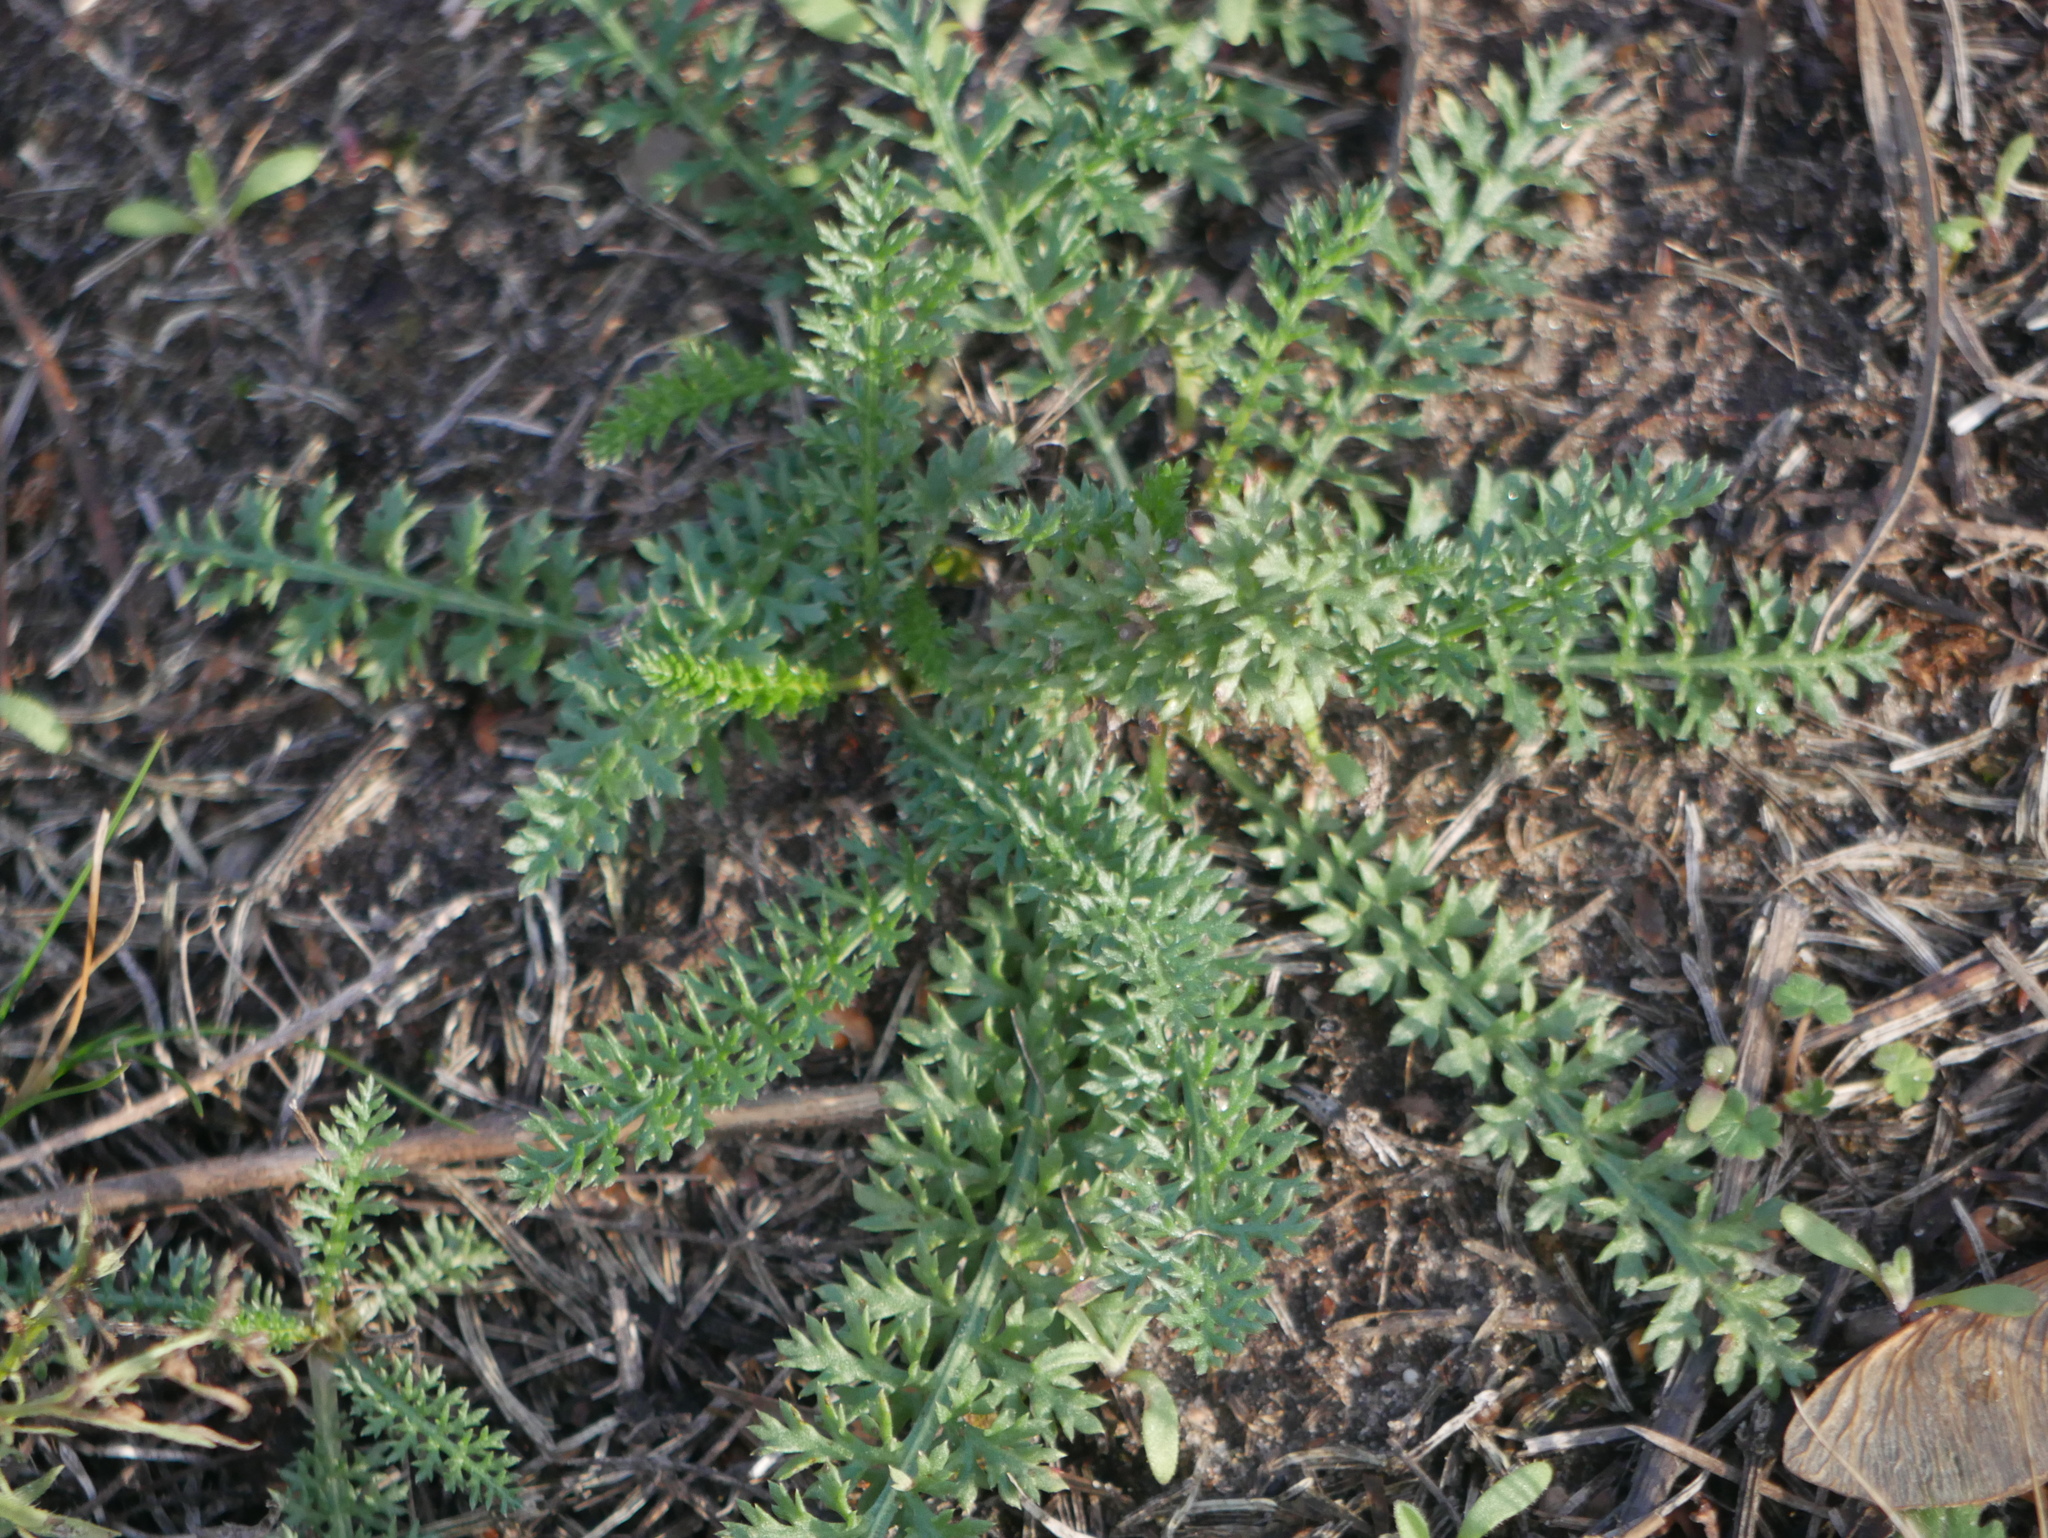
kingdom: Plantae
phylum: Tracheophyta
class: Magnoliopsida
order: Asterales
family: Asteraceae
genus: Achillea
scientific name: Achillea millefolium
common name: Yarrow
